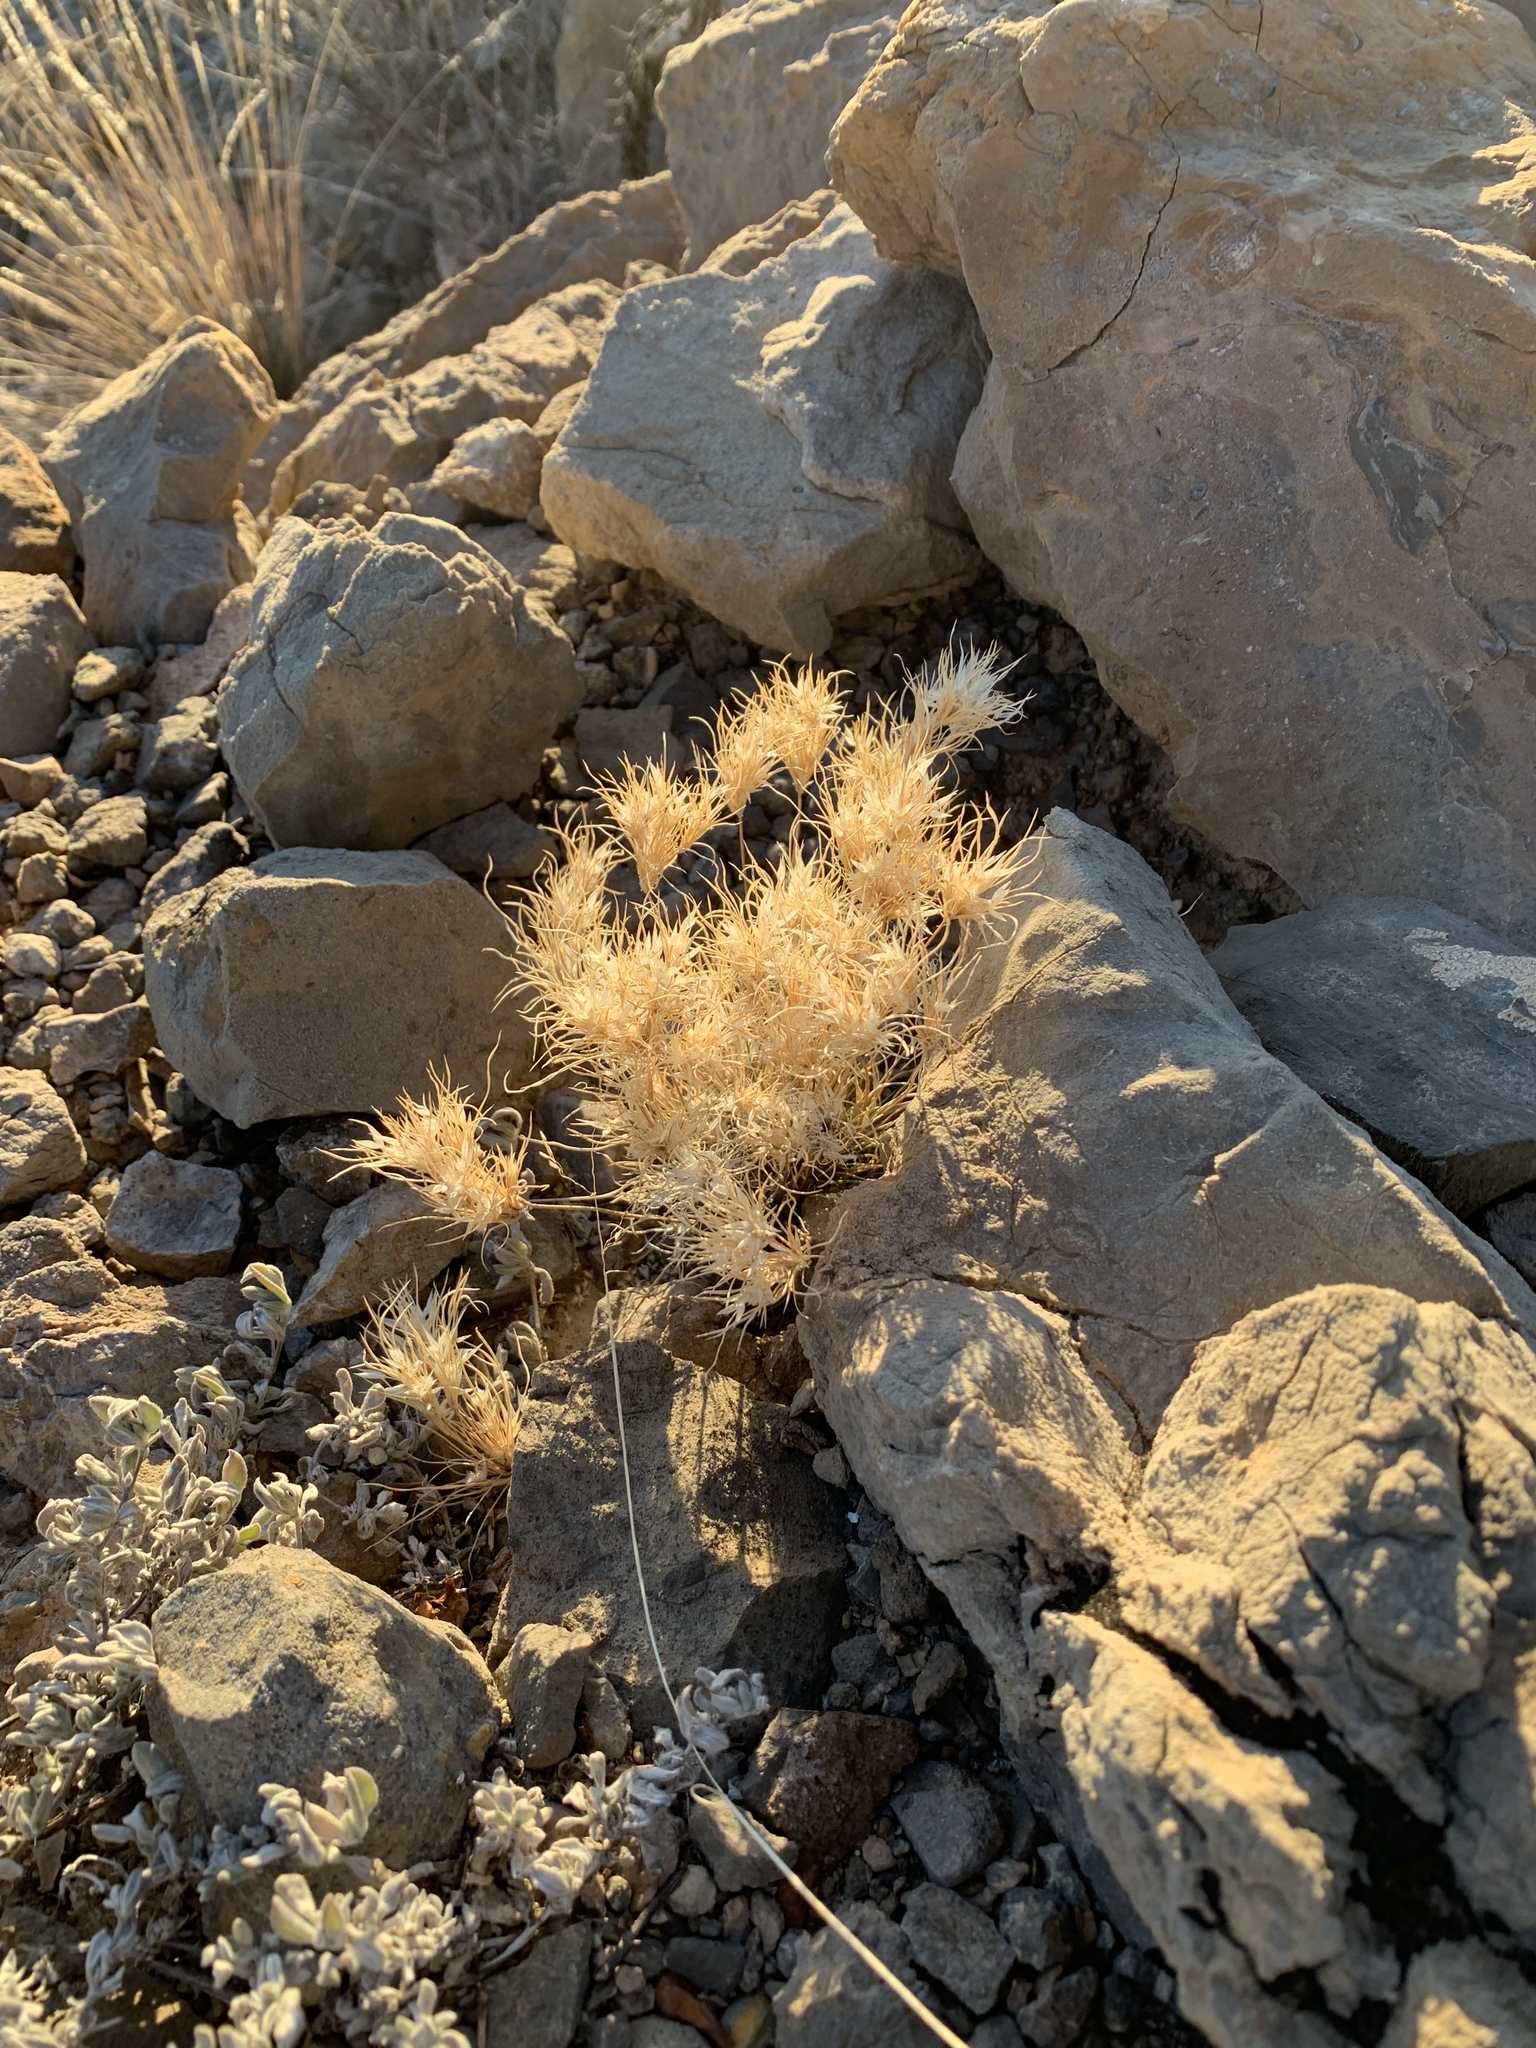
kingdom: Plantae
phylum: Tracheophyta
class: Liliopsida
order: Poales
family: Poaceae
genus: Dasyochloa
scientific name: Dasyochloa pulchella
